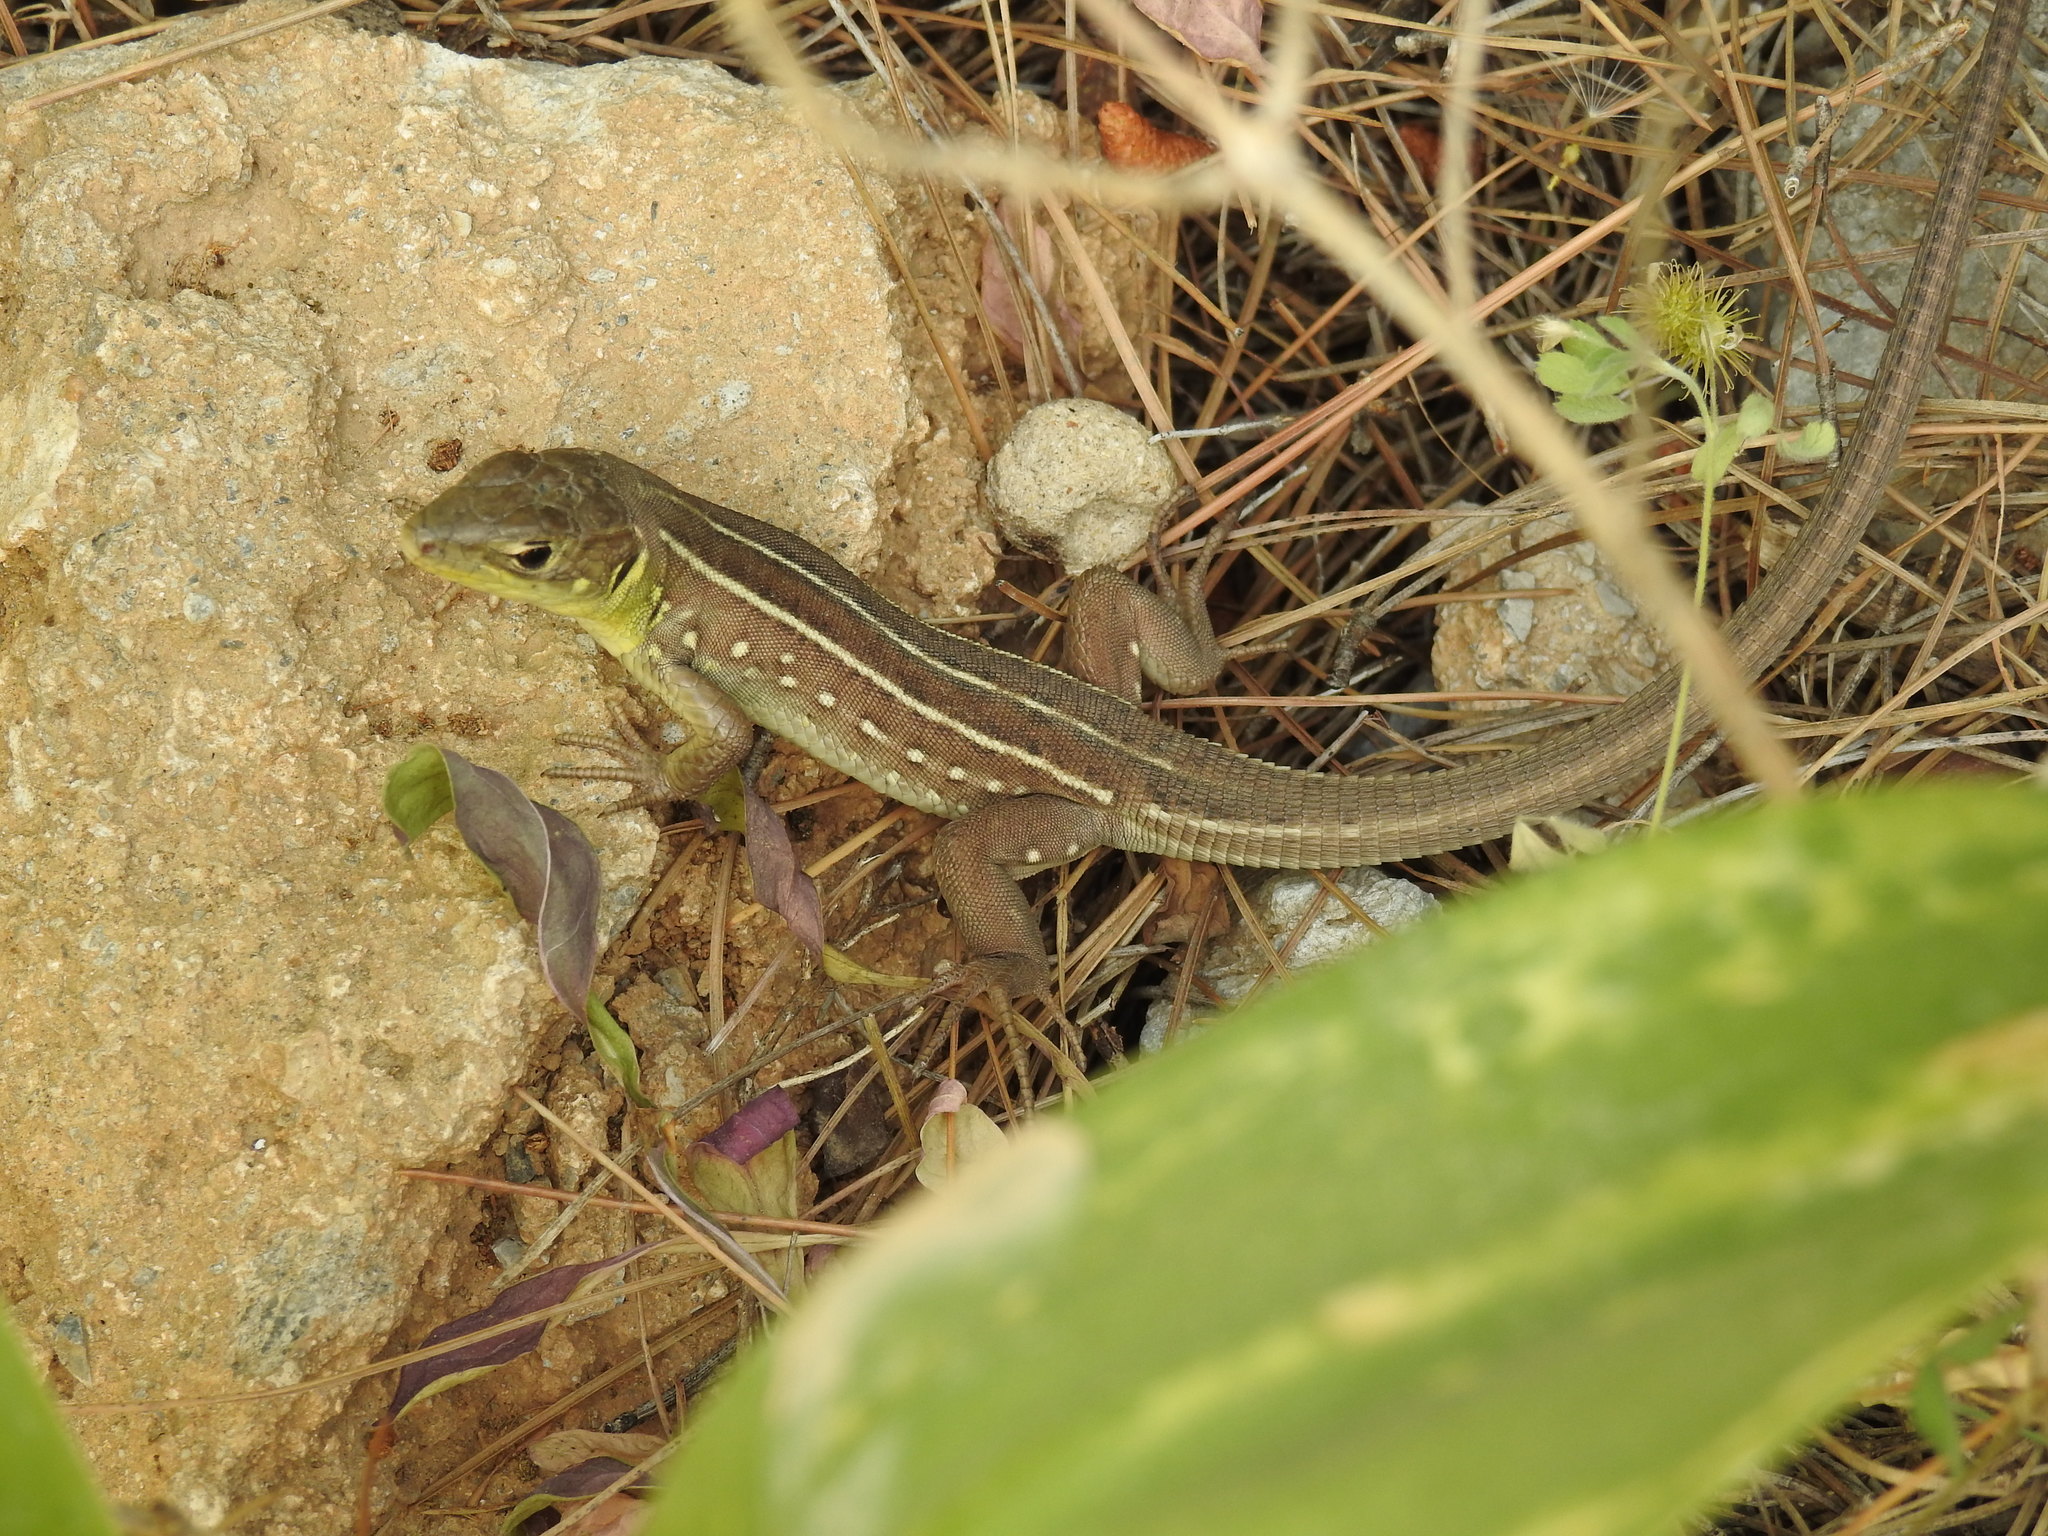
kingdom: Animalia
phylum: Chordata
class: Squamata
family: Lacertidae
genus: Lacerta
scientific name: Lacerta trilineata
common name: Balkan green lizard
